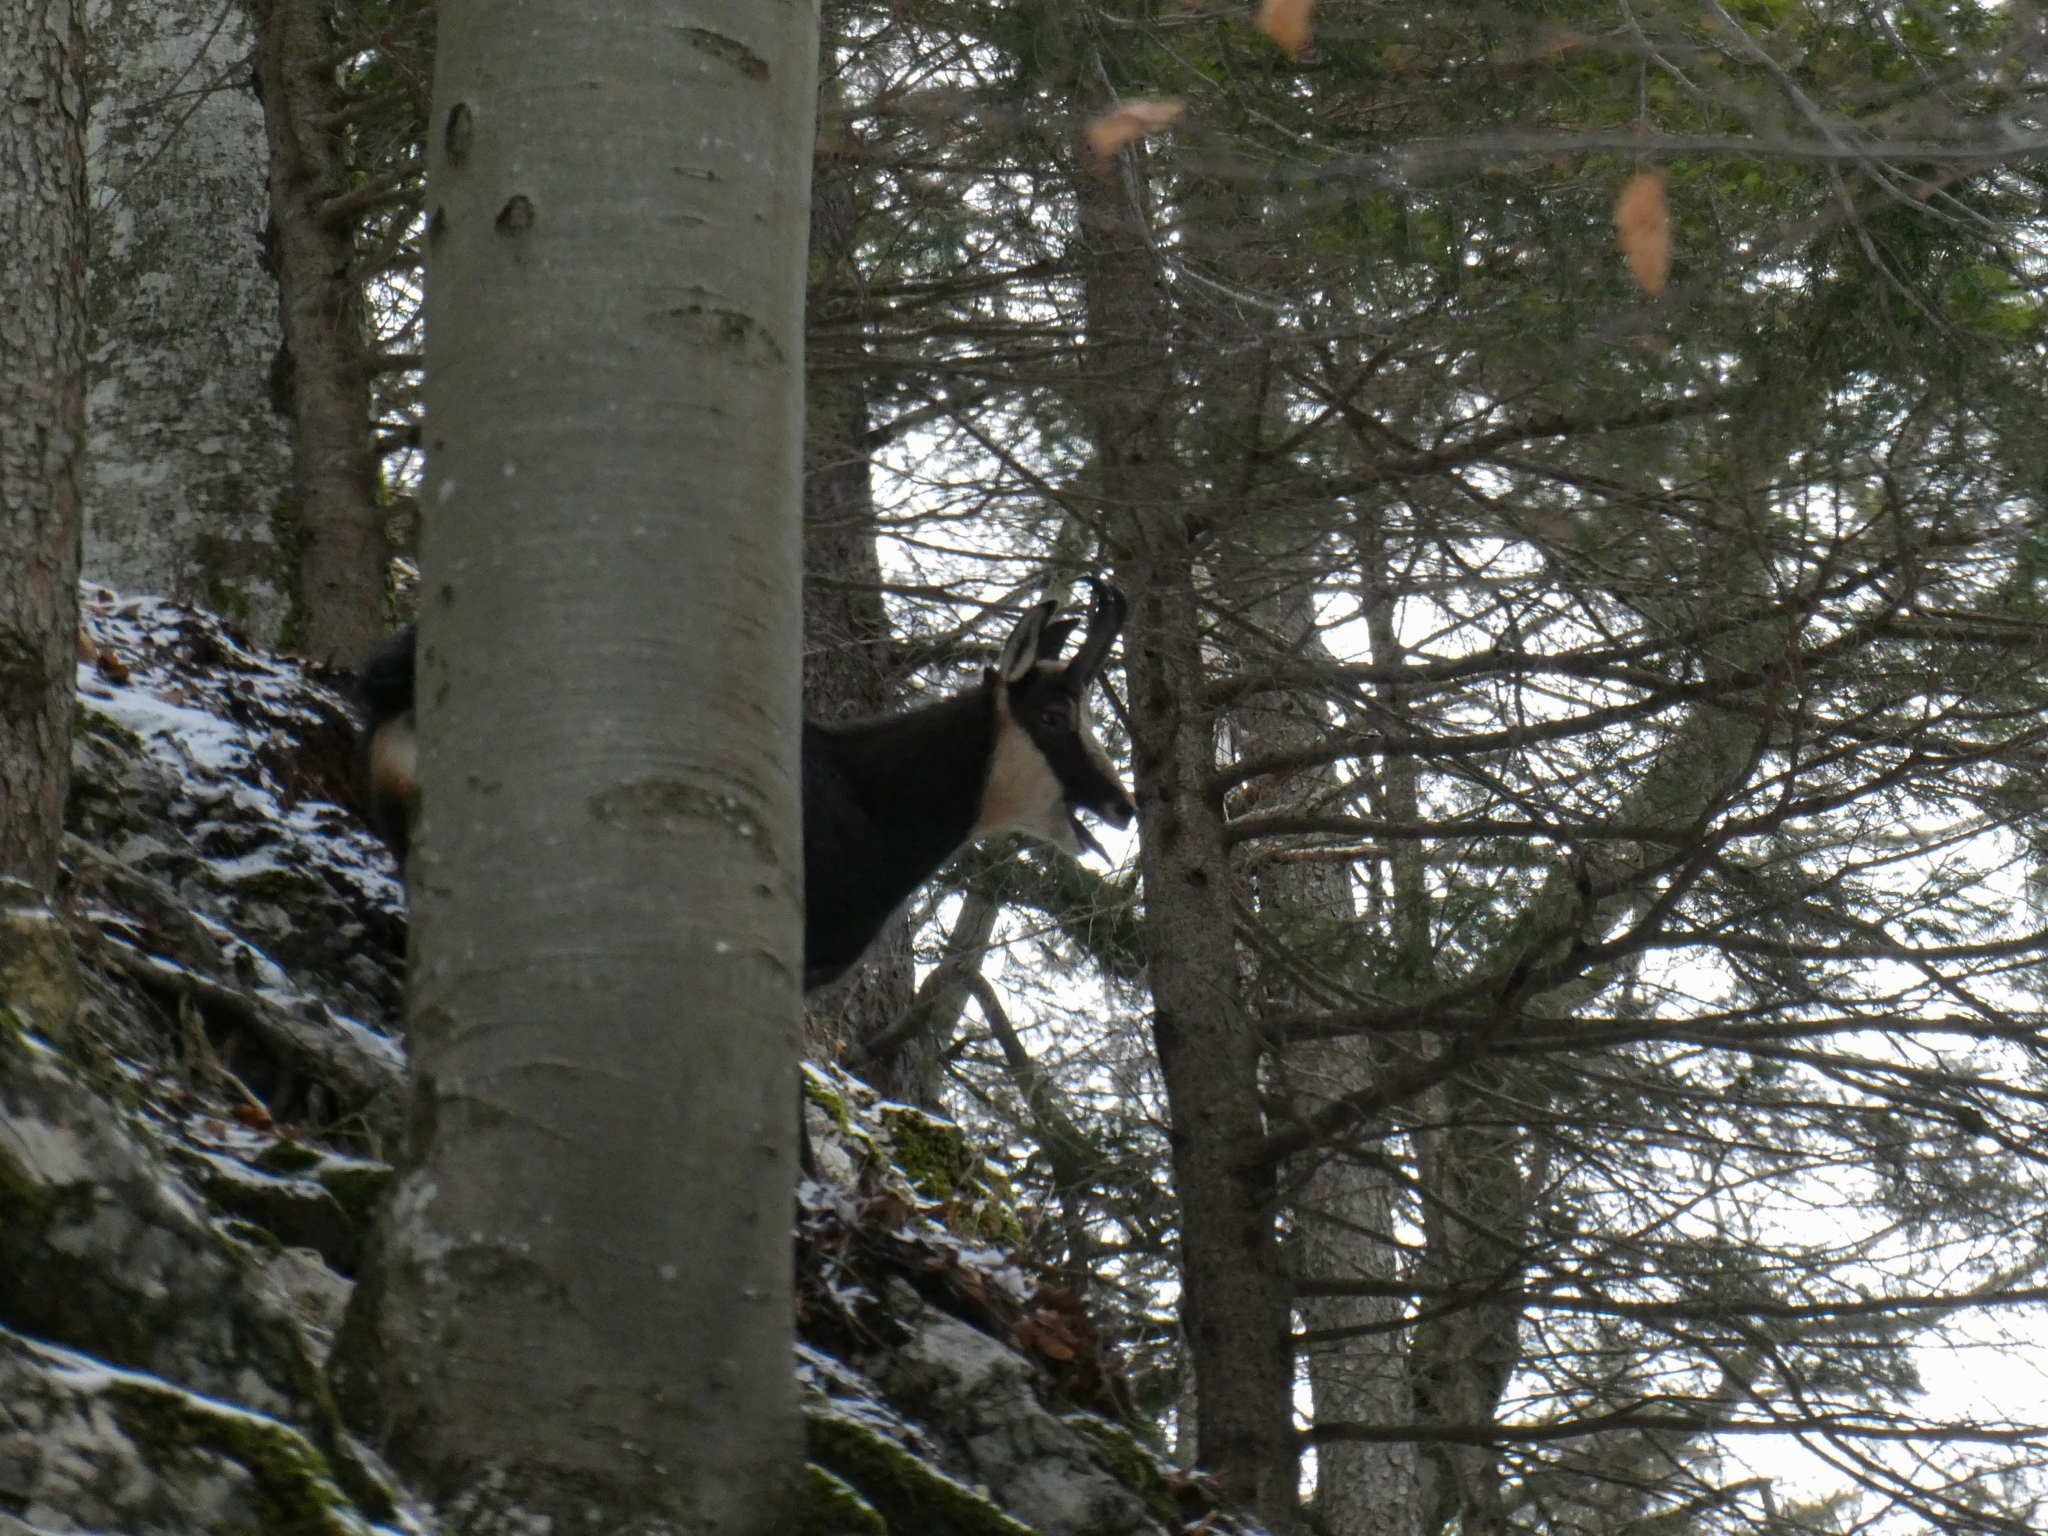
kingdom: Animalia
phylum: Chordata
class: Mammalia
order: Artiodactyla
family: Bovidae
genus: Rupicapra
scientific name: Rupicapra rupicapra
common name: Chamois
